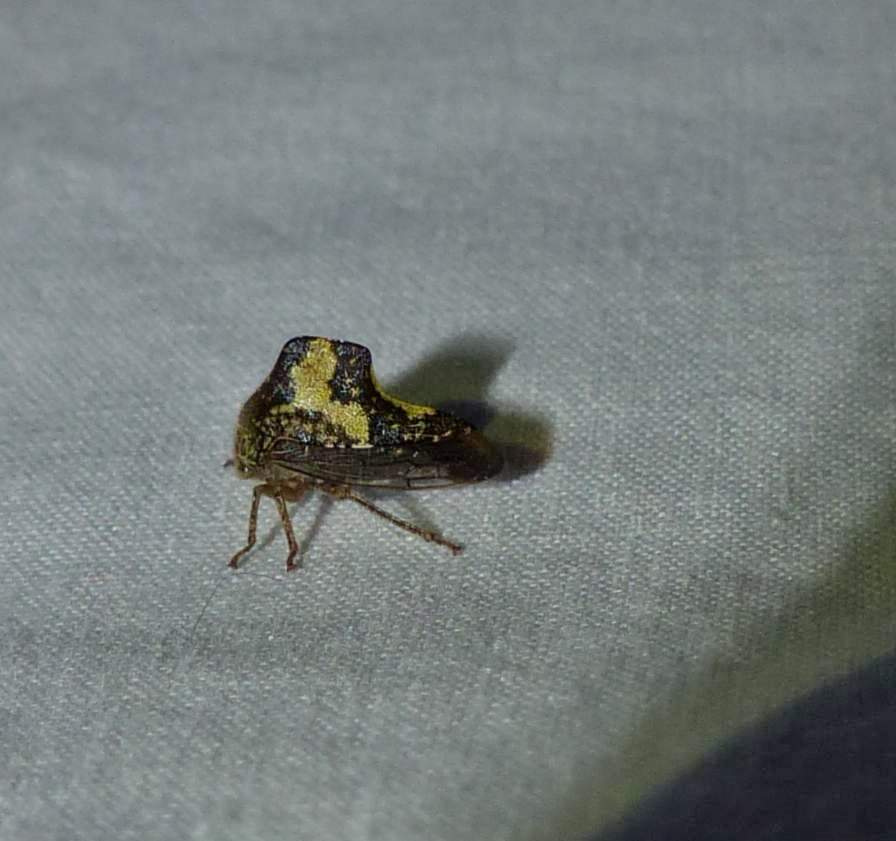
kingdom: Animalia
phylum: Arthropoda
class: Insecta
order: Hemiptera
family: Membracidae
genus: Telamona
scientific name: Telamona tristis
